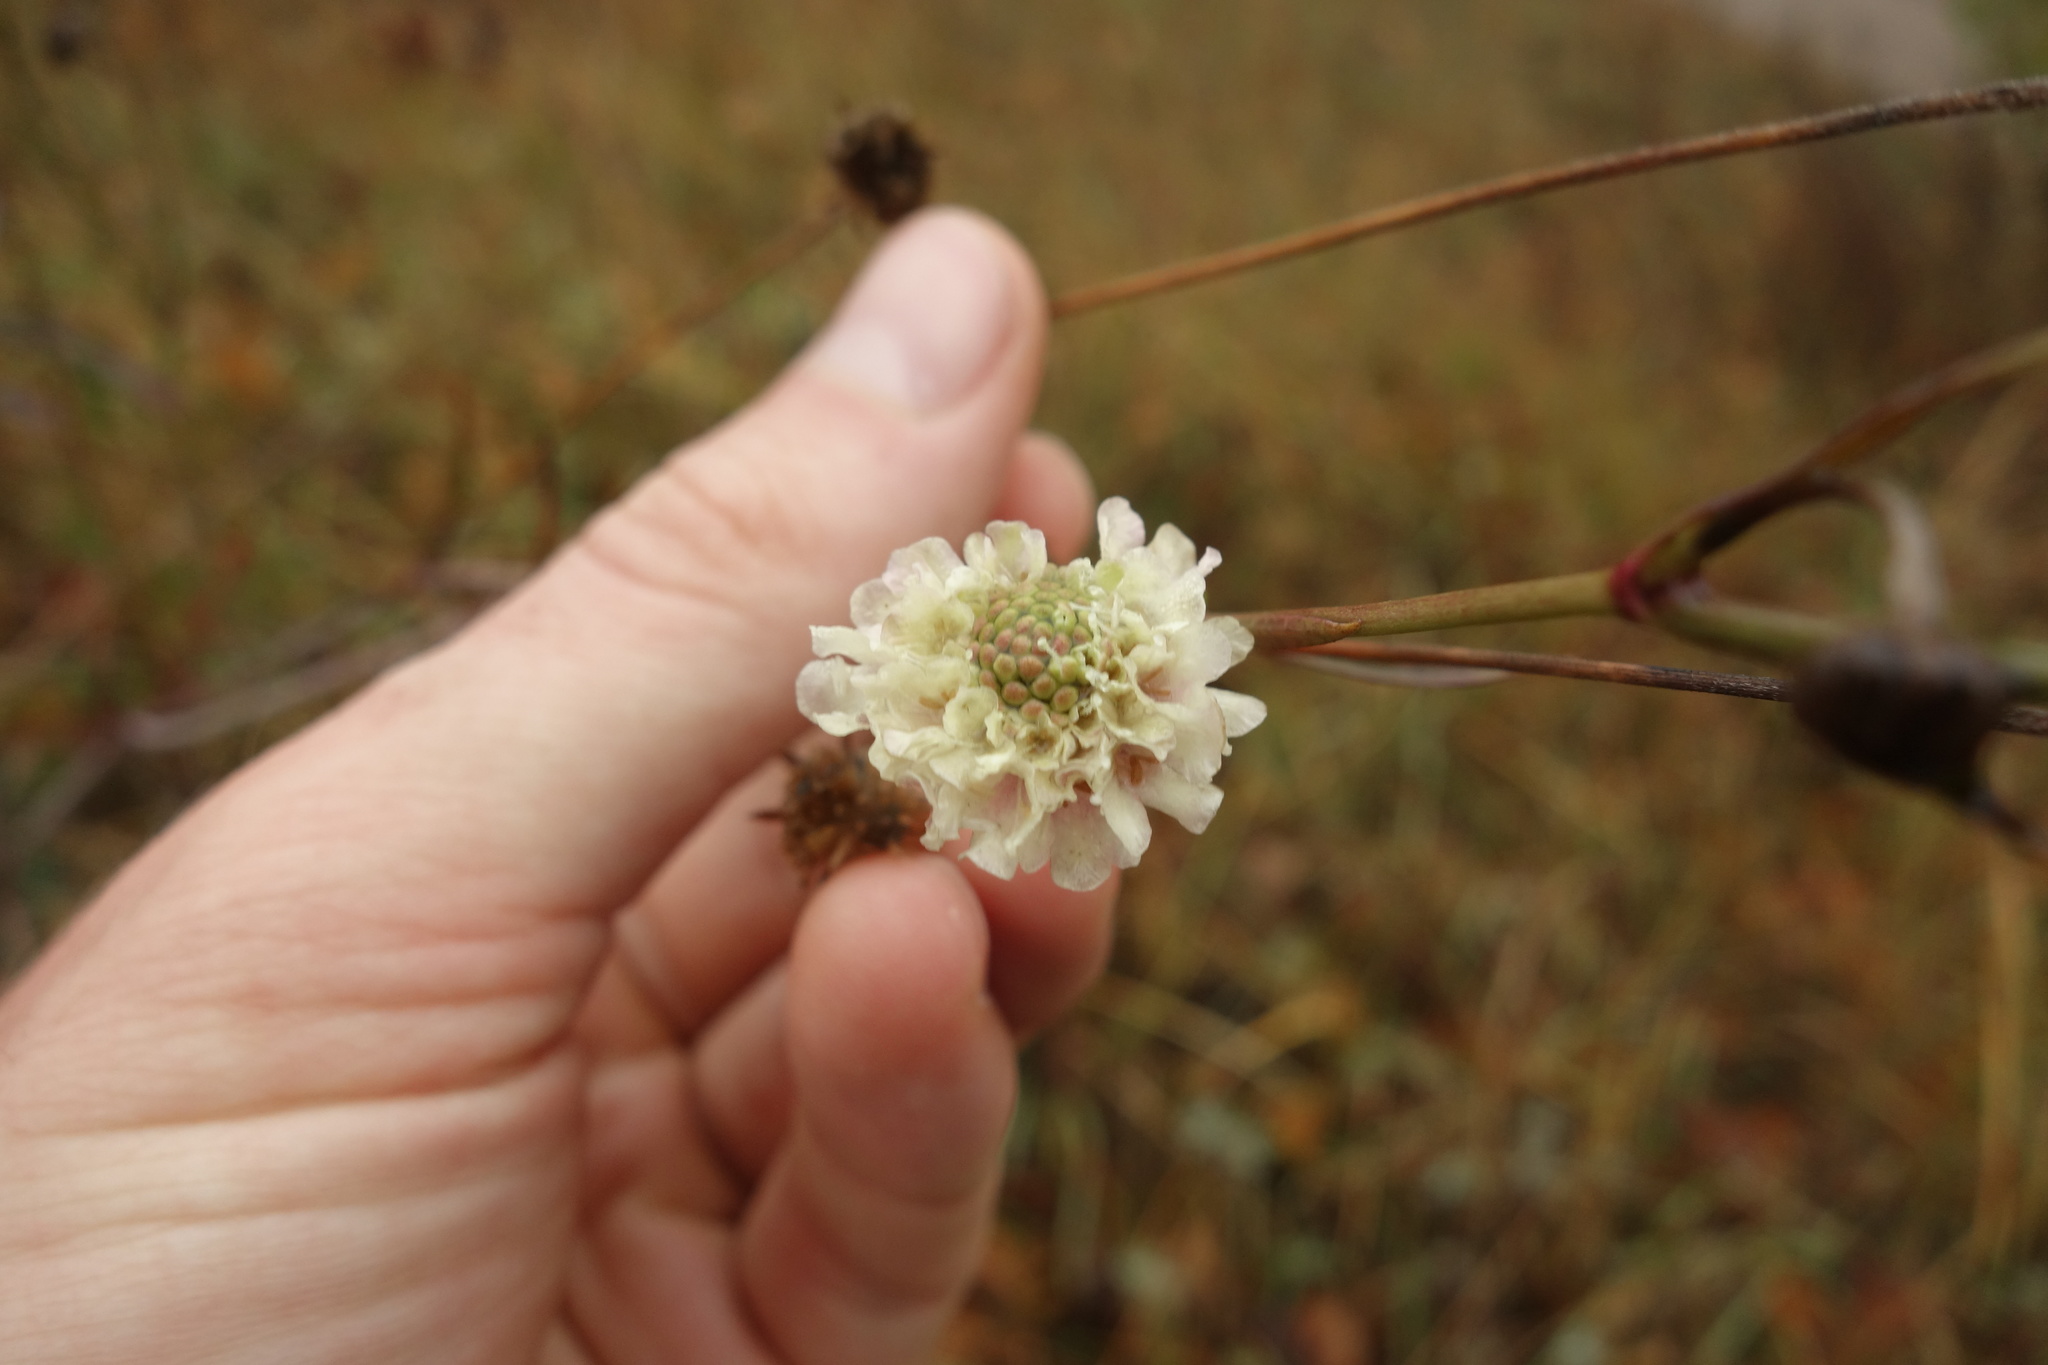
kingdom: Plantae
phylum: Tracheophyta
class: Magnoliopsida
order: Dipsacales
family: Caprifoliaceae
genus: Scabiosa
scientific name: Scabiosa ochroleuca
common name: Cream pincushions
